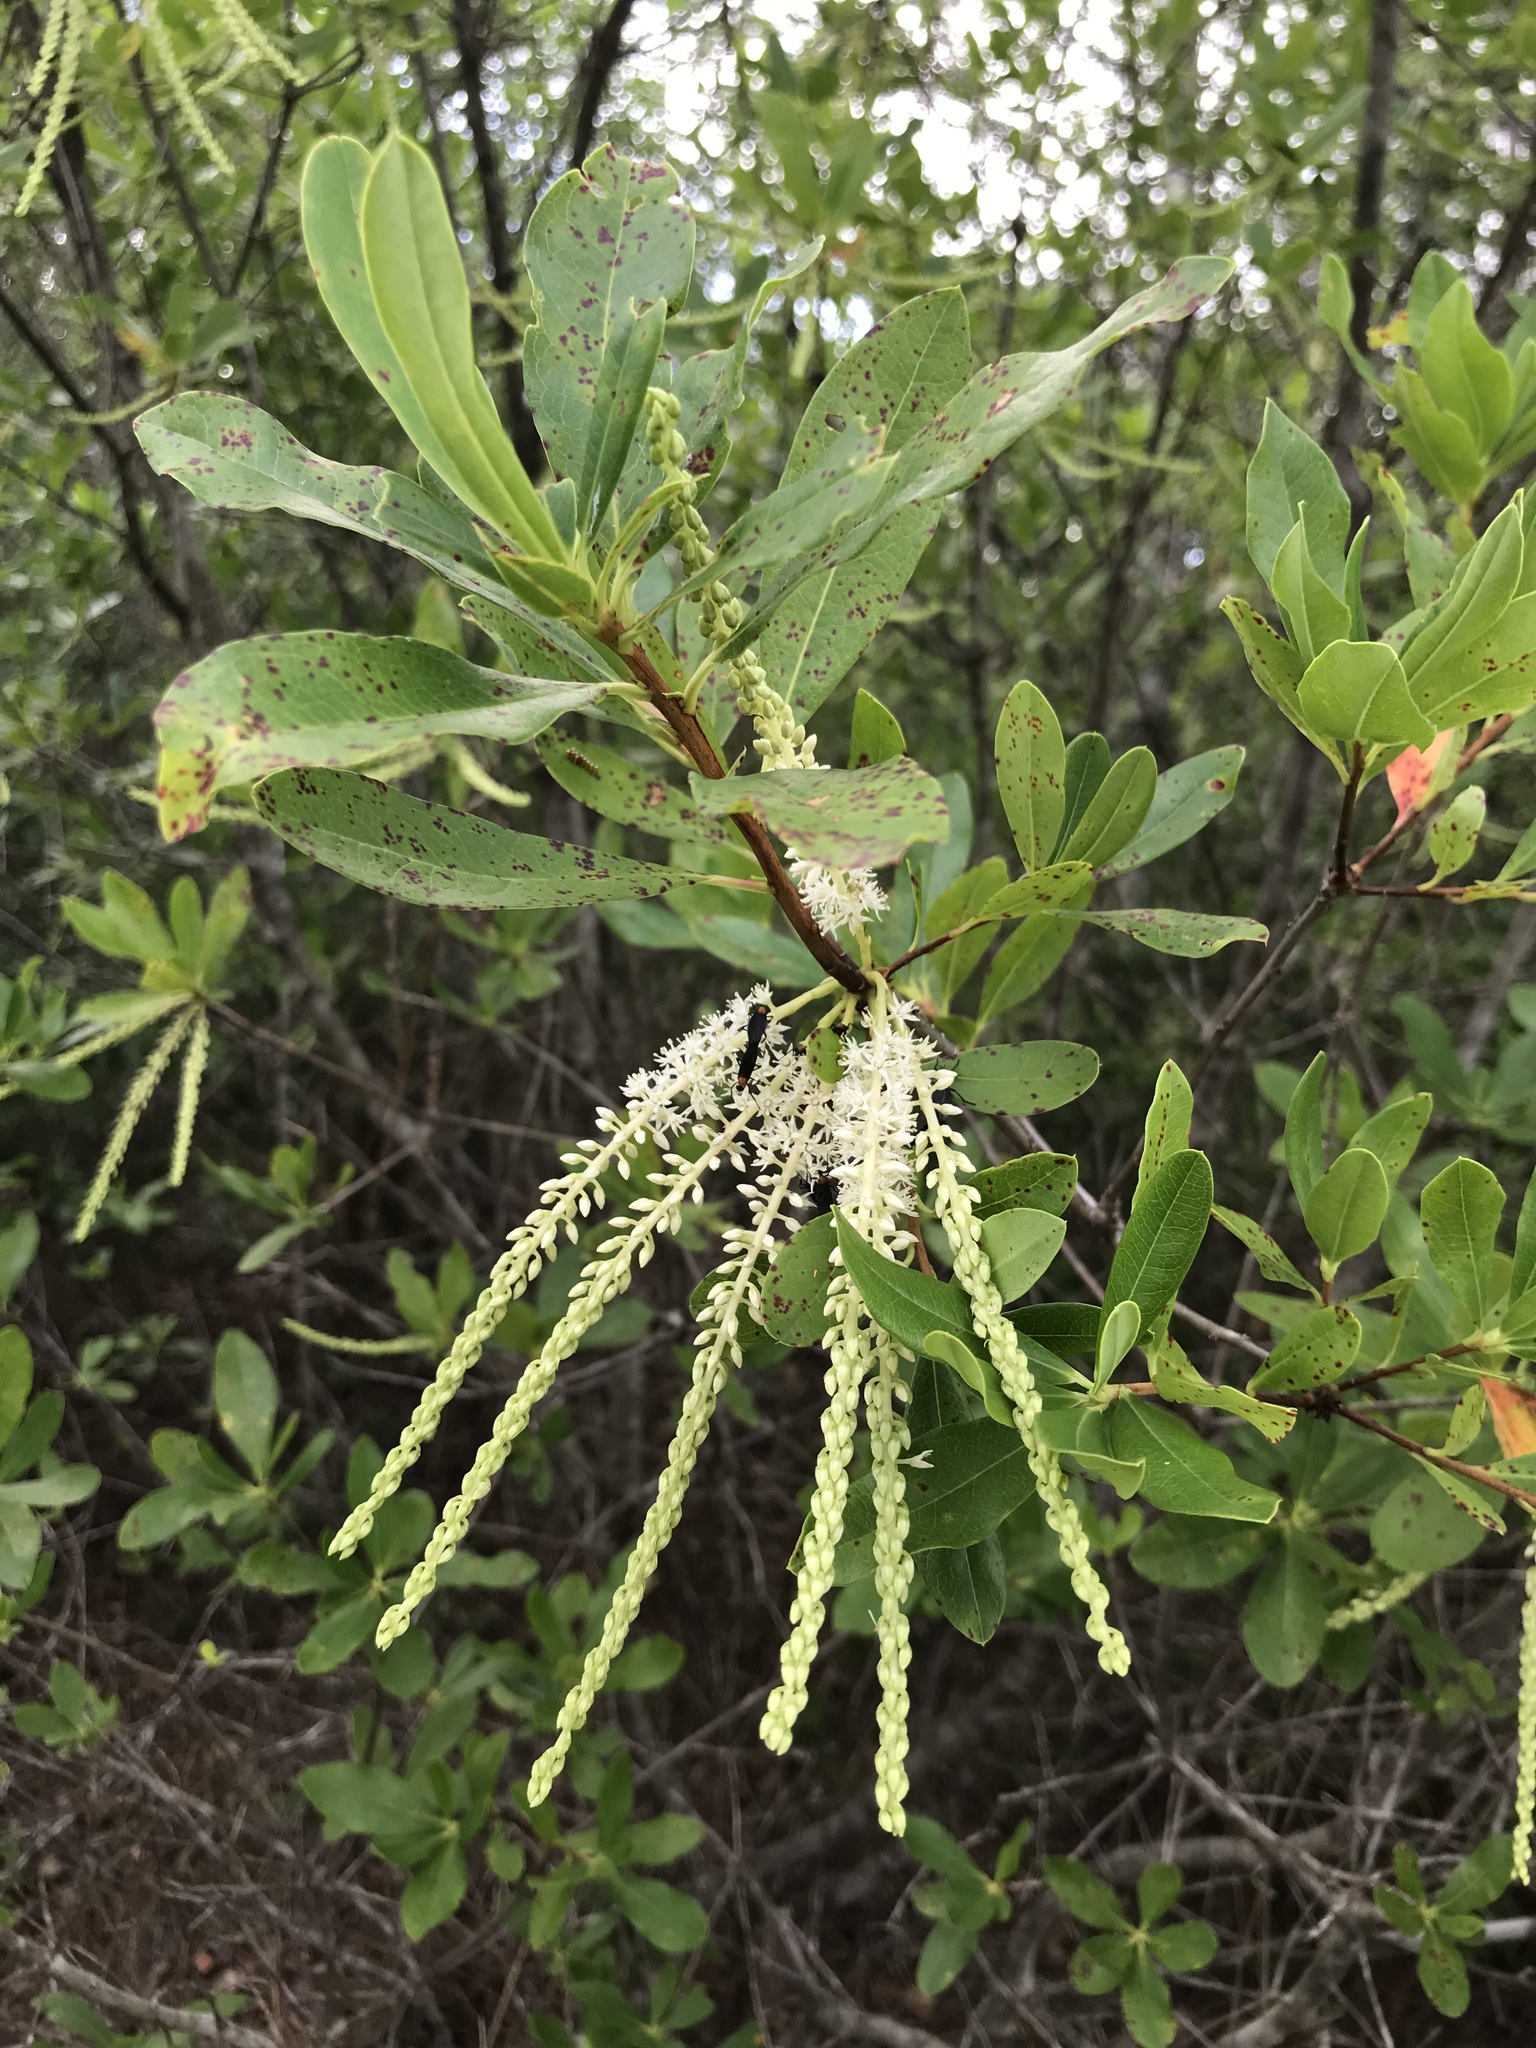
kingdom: Plantae
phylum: Tracheophyta
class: Magnoliopsida
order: Ericales
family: Cyrillaceae
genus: Cyrilla
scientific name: Cyrilla racemiflora
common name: Black titi
